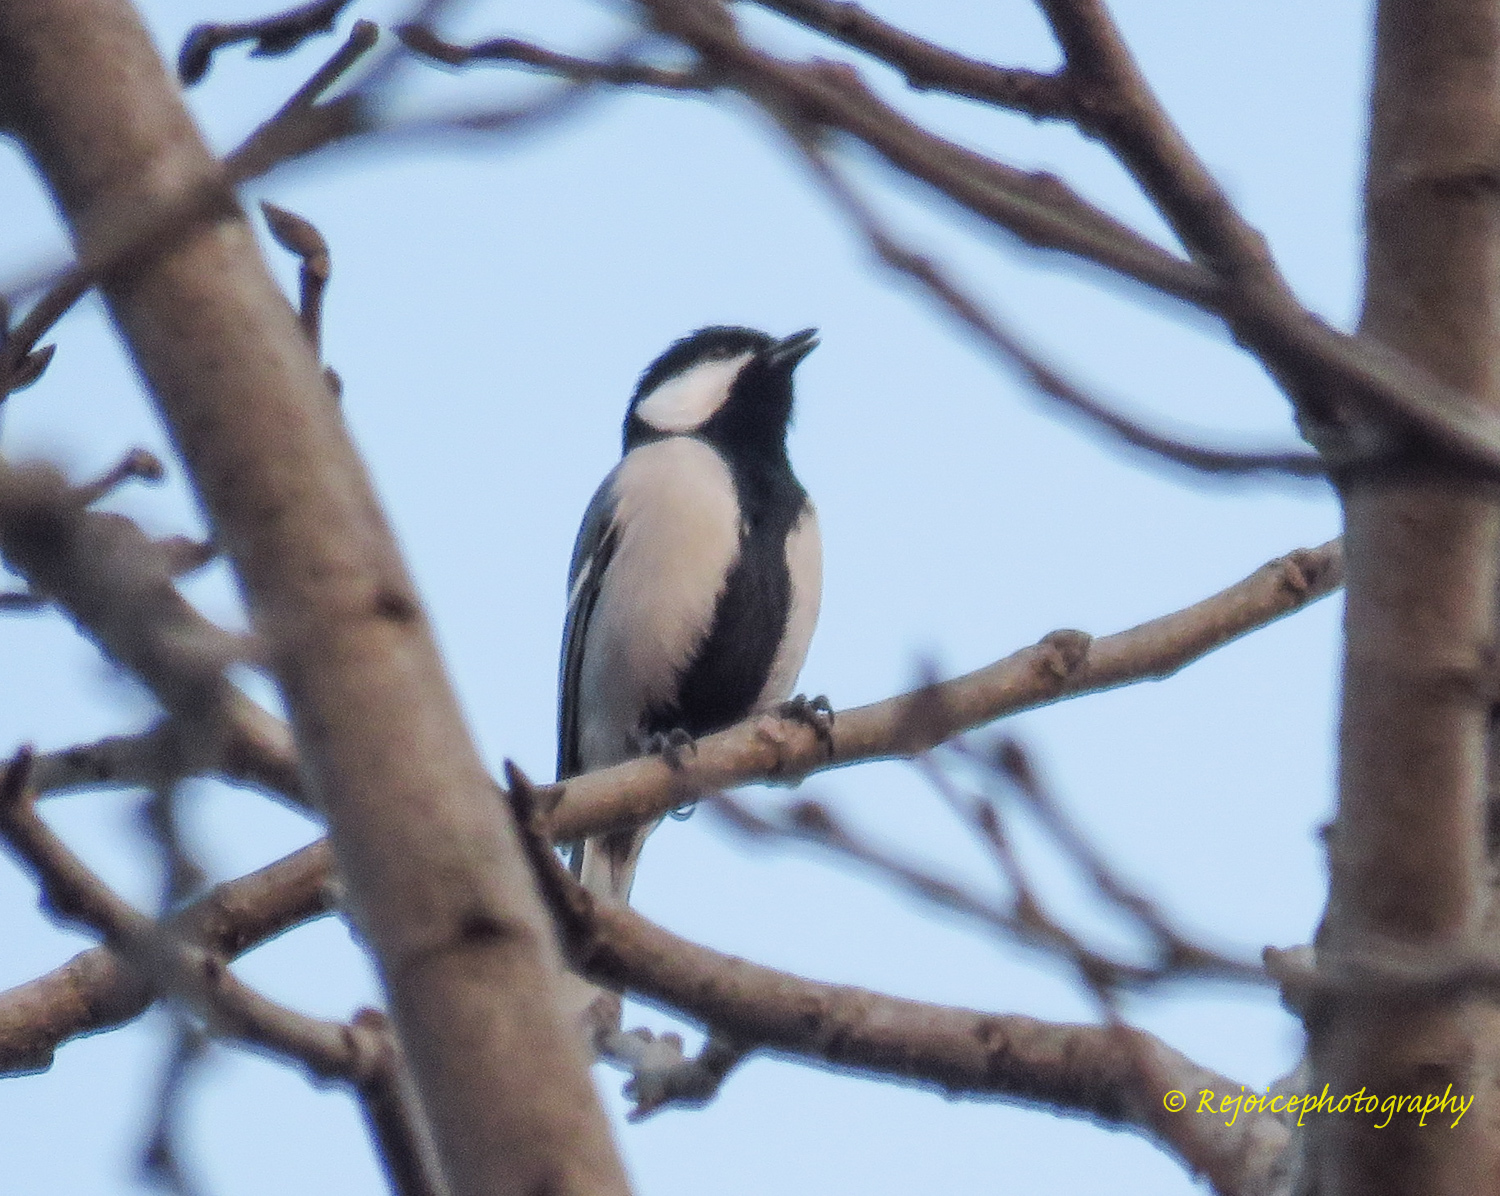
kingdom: Animalia
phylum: Chordata
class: Aves
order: Passeriformes
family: Paridae
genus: Parus
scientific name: Parus cinereus
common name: Cinereous tit
